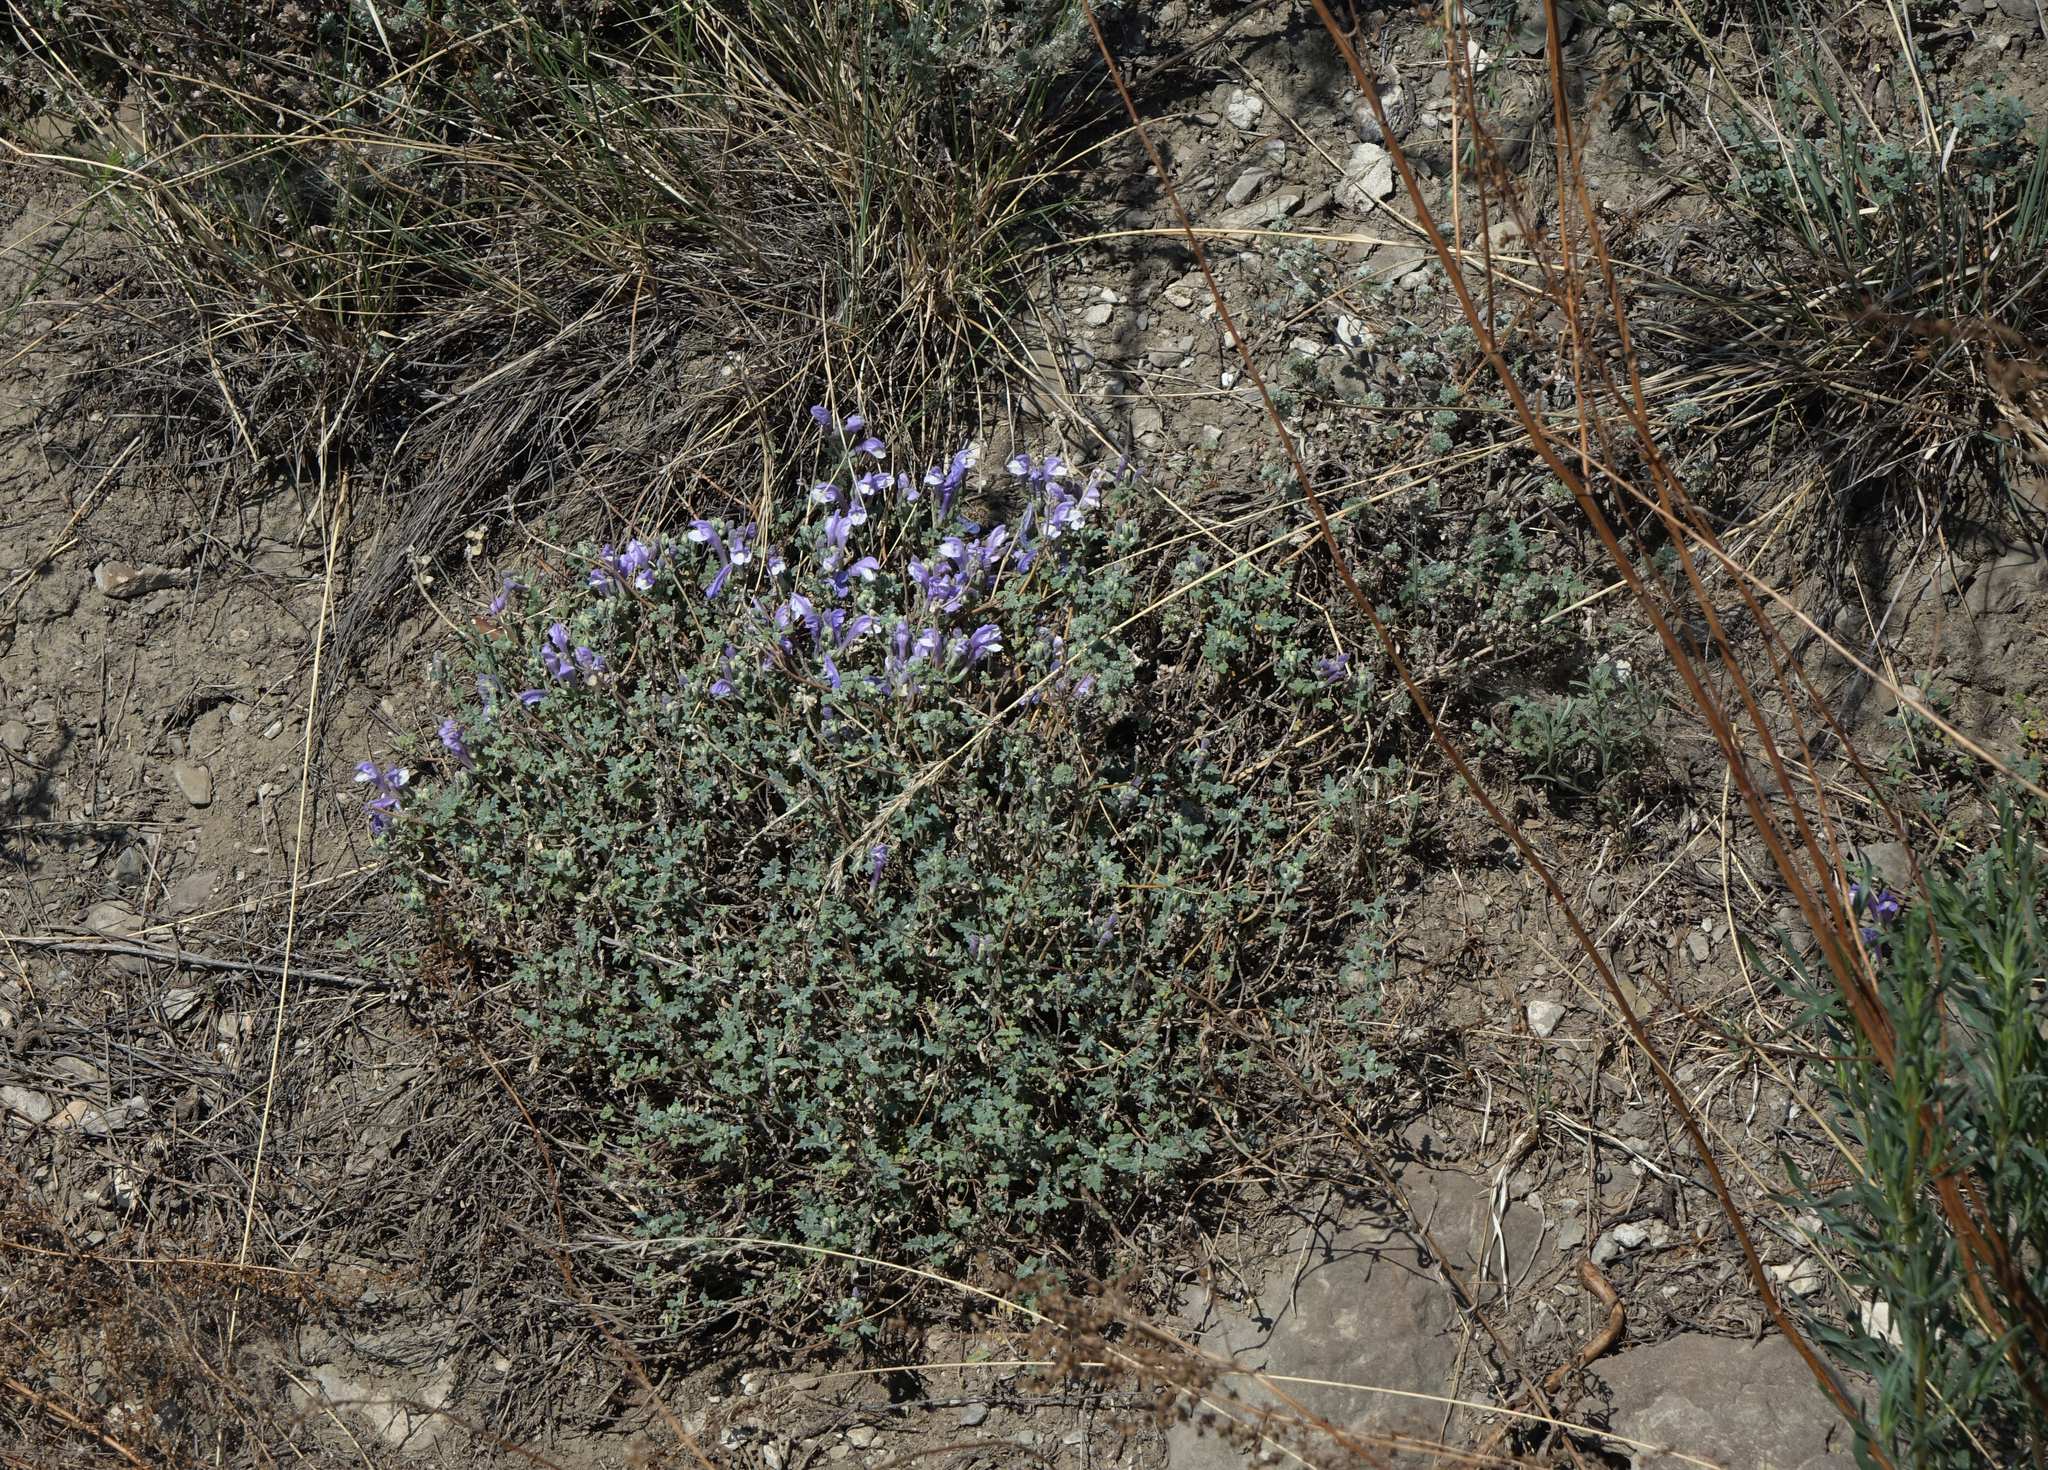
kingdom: Plantae
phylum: Tracheophyta
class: Magnoliopsida
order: Lamiales
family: Lamiaceae
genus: Scutellaria
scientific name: Scutellaria tuvensis
